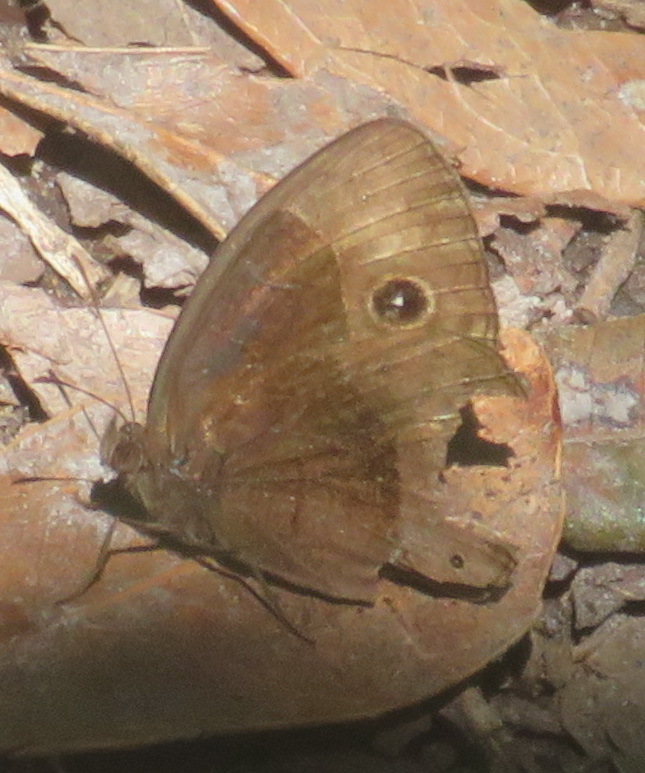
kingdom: Animalia
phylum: Arthropoda
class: Insecta
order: Lepidoptera
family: Nymphalidae
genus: Mycalesis
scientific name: Mycalesis rhacotis
